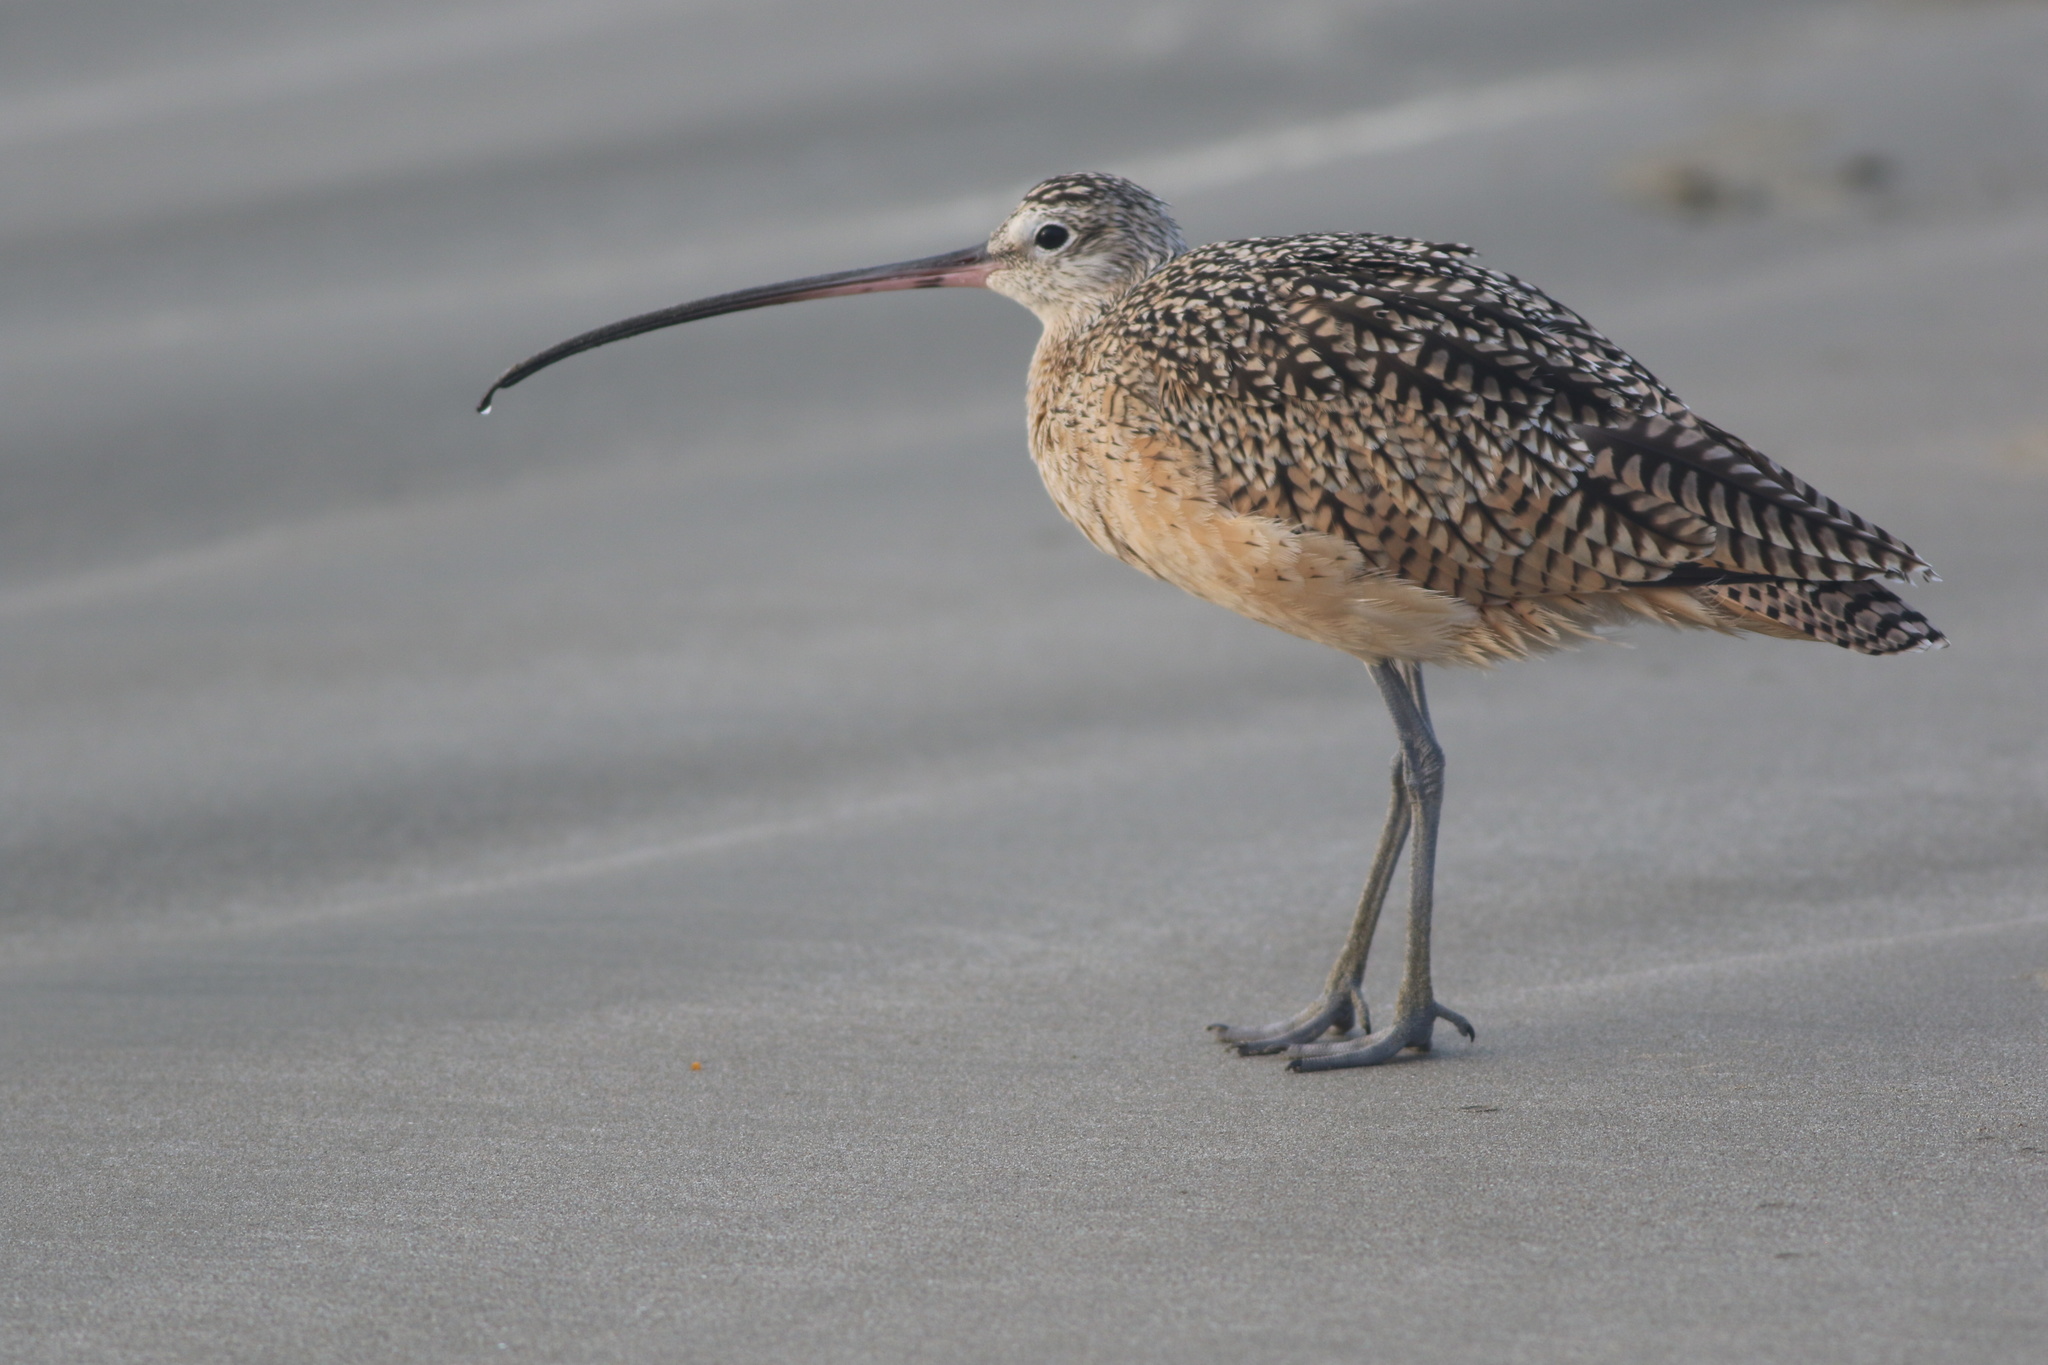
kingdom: Animalia
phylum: Chordata
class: Aves
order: Charadriiformes
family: Scolopacidae
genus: Numenius
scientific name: Numenius americanus
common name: Long-billed curlew
